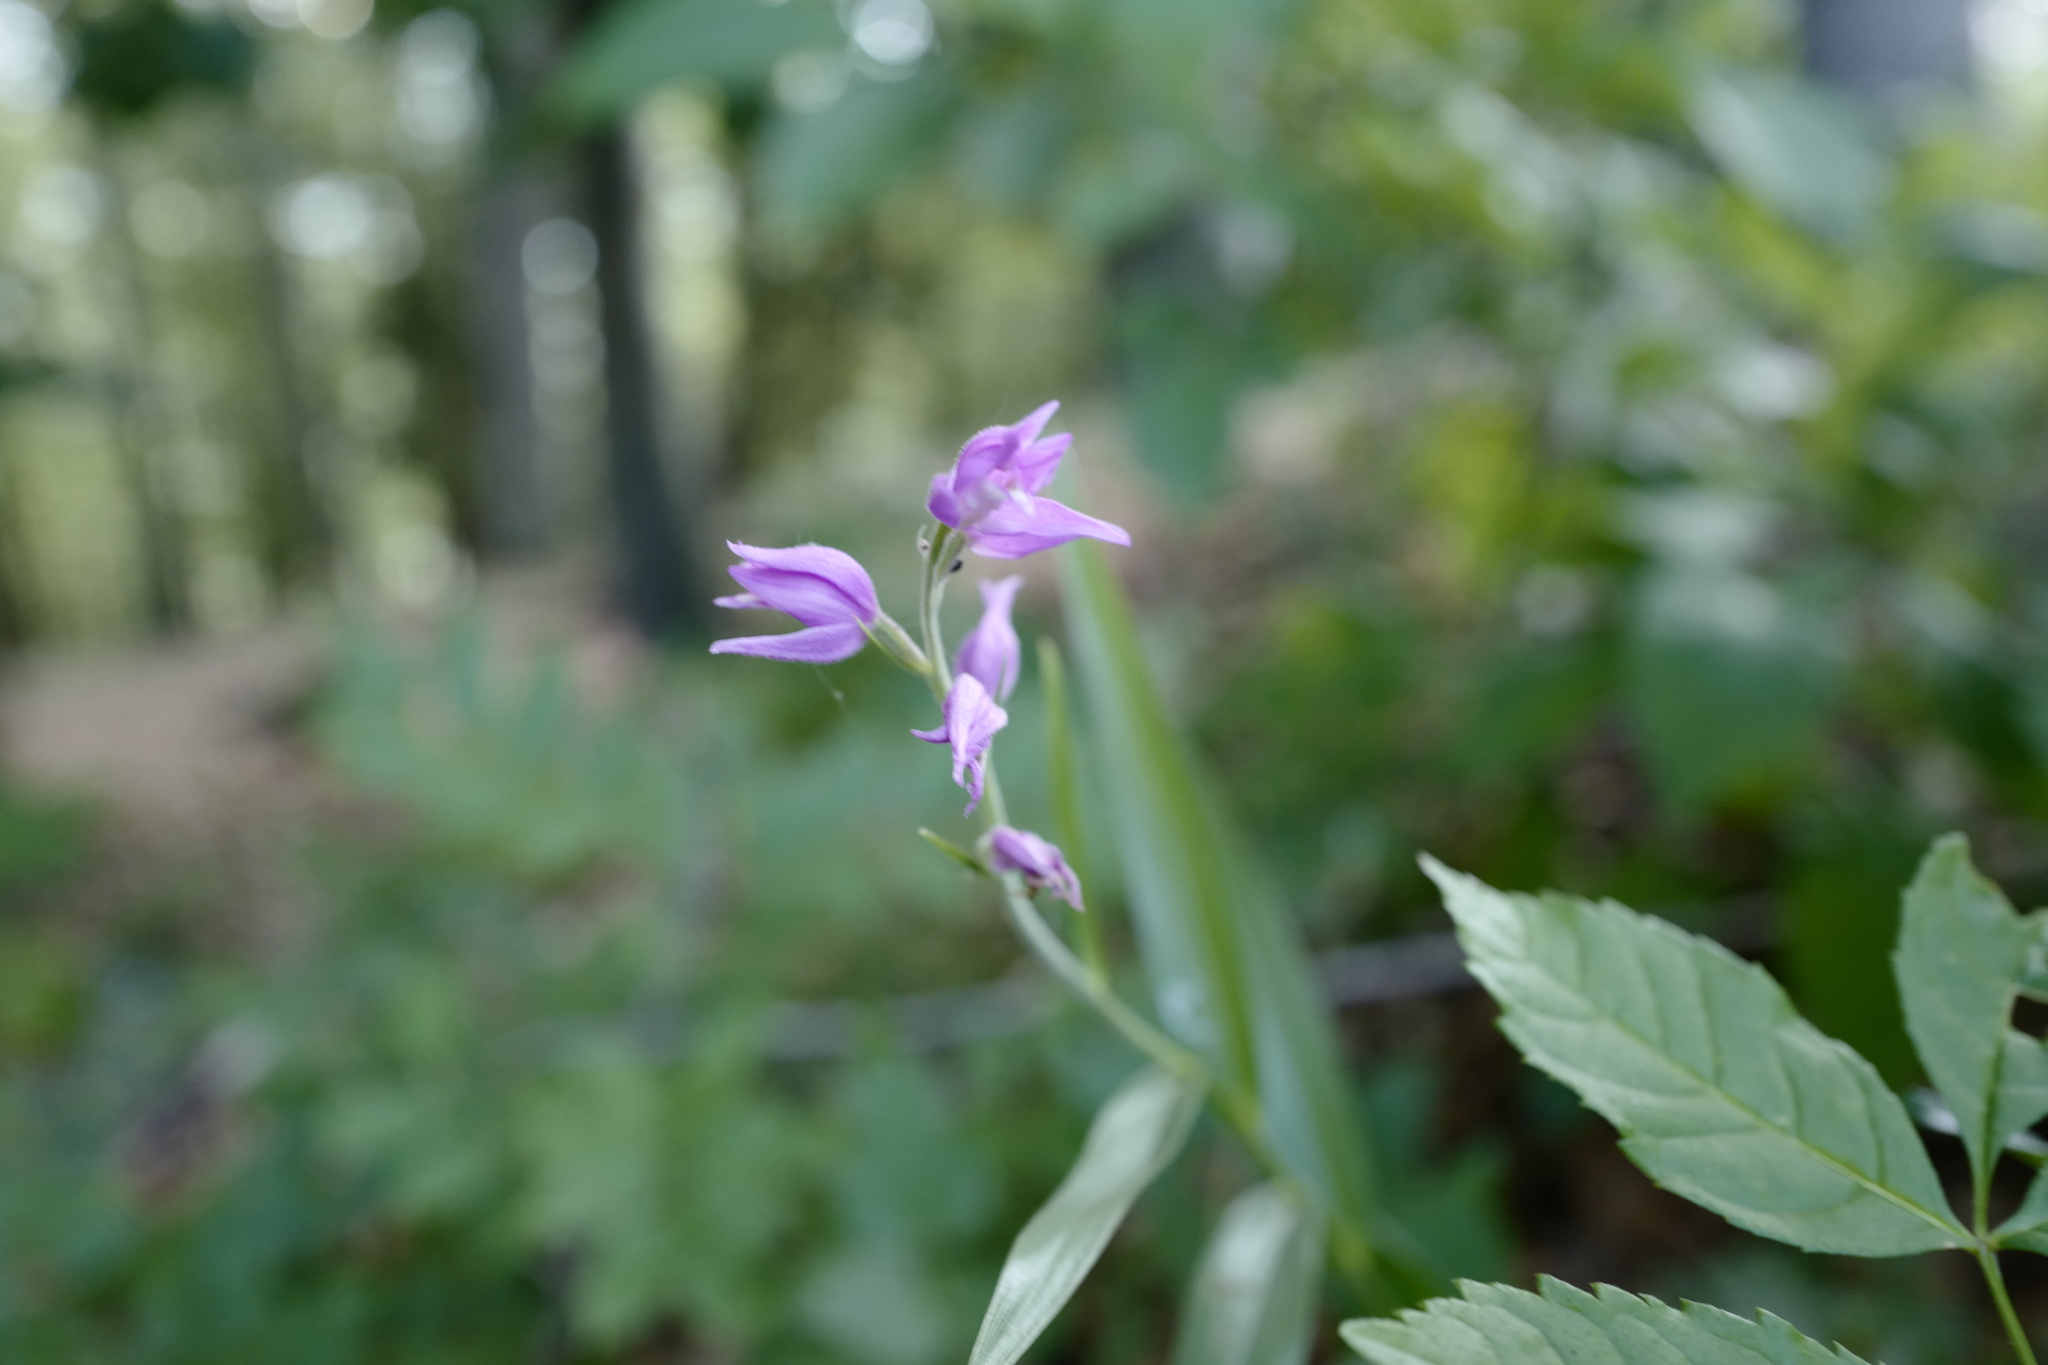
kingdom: Plantae
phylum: Tracheophyta
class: Liliopsida
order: Asparagales
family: Orchidaceae
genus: Cephalanthera
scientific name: Cephalanthera rubra
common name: Red helleborine
